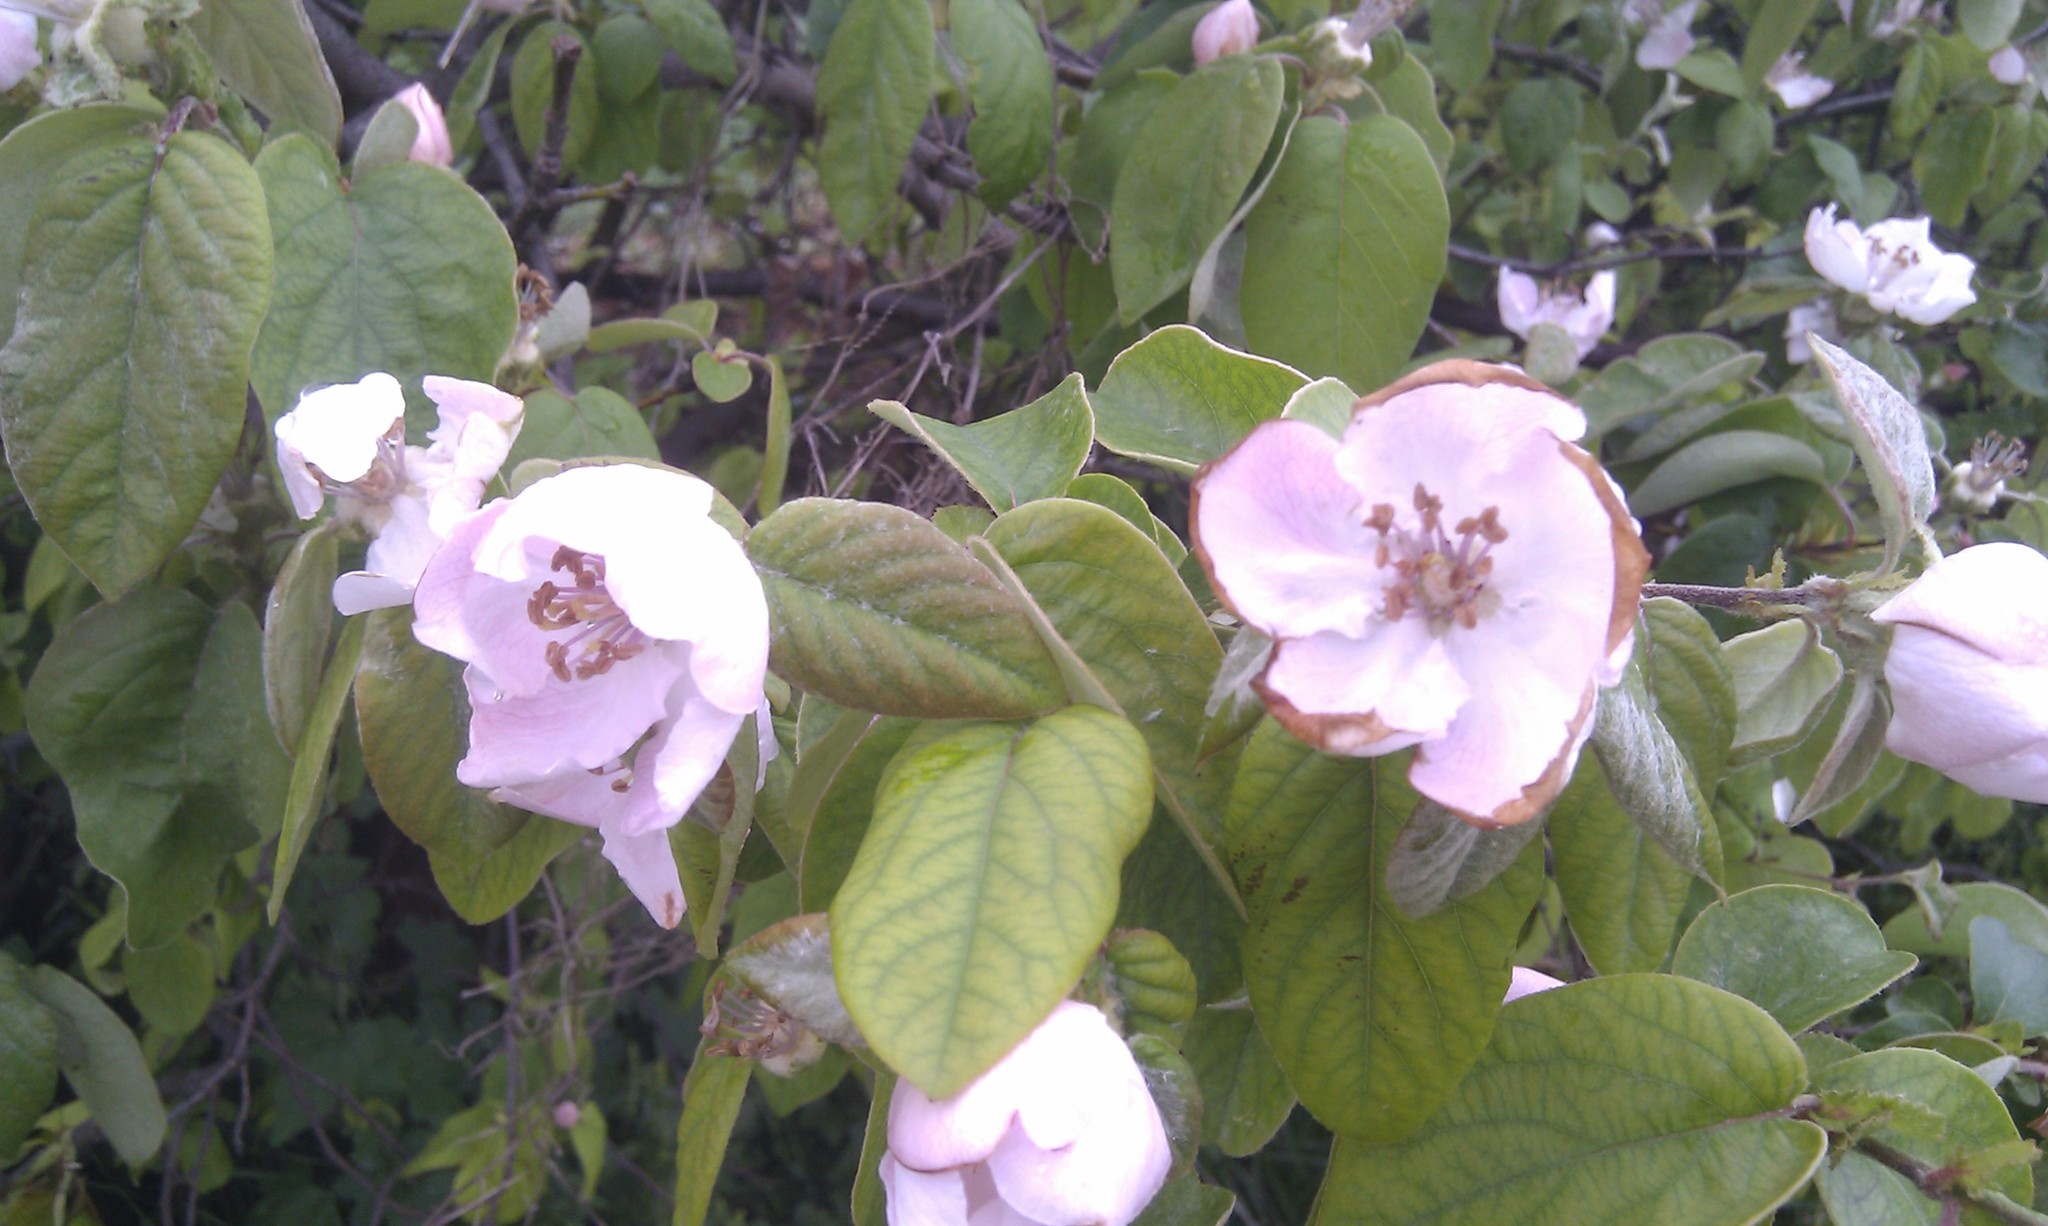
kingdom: Plantae
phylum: Tracheophyta
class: Magnoliopsida
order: Rosales
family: Rosaceae
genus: Cydonia
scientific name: Cydonia oblonga
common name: Quince
